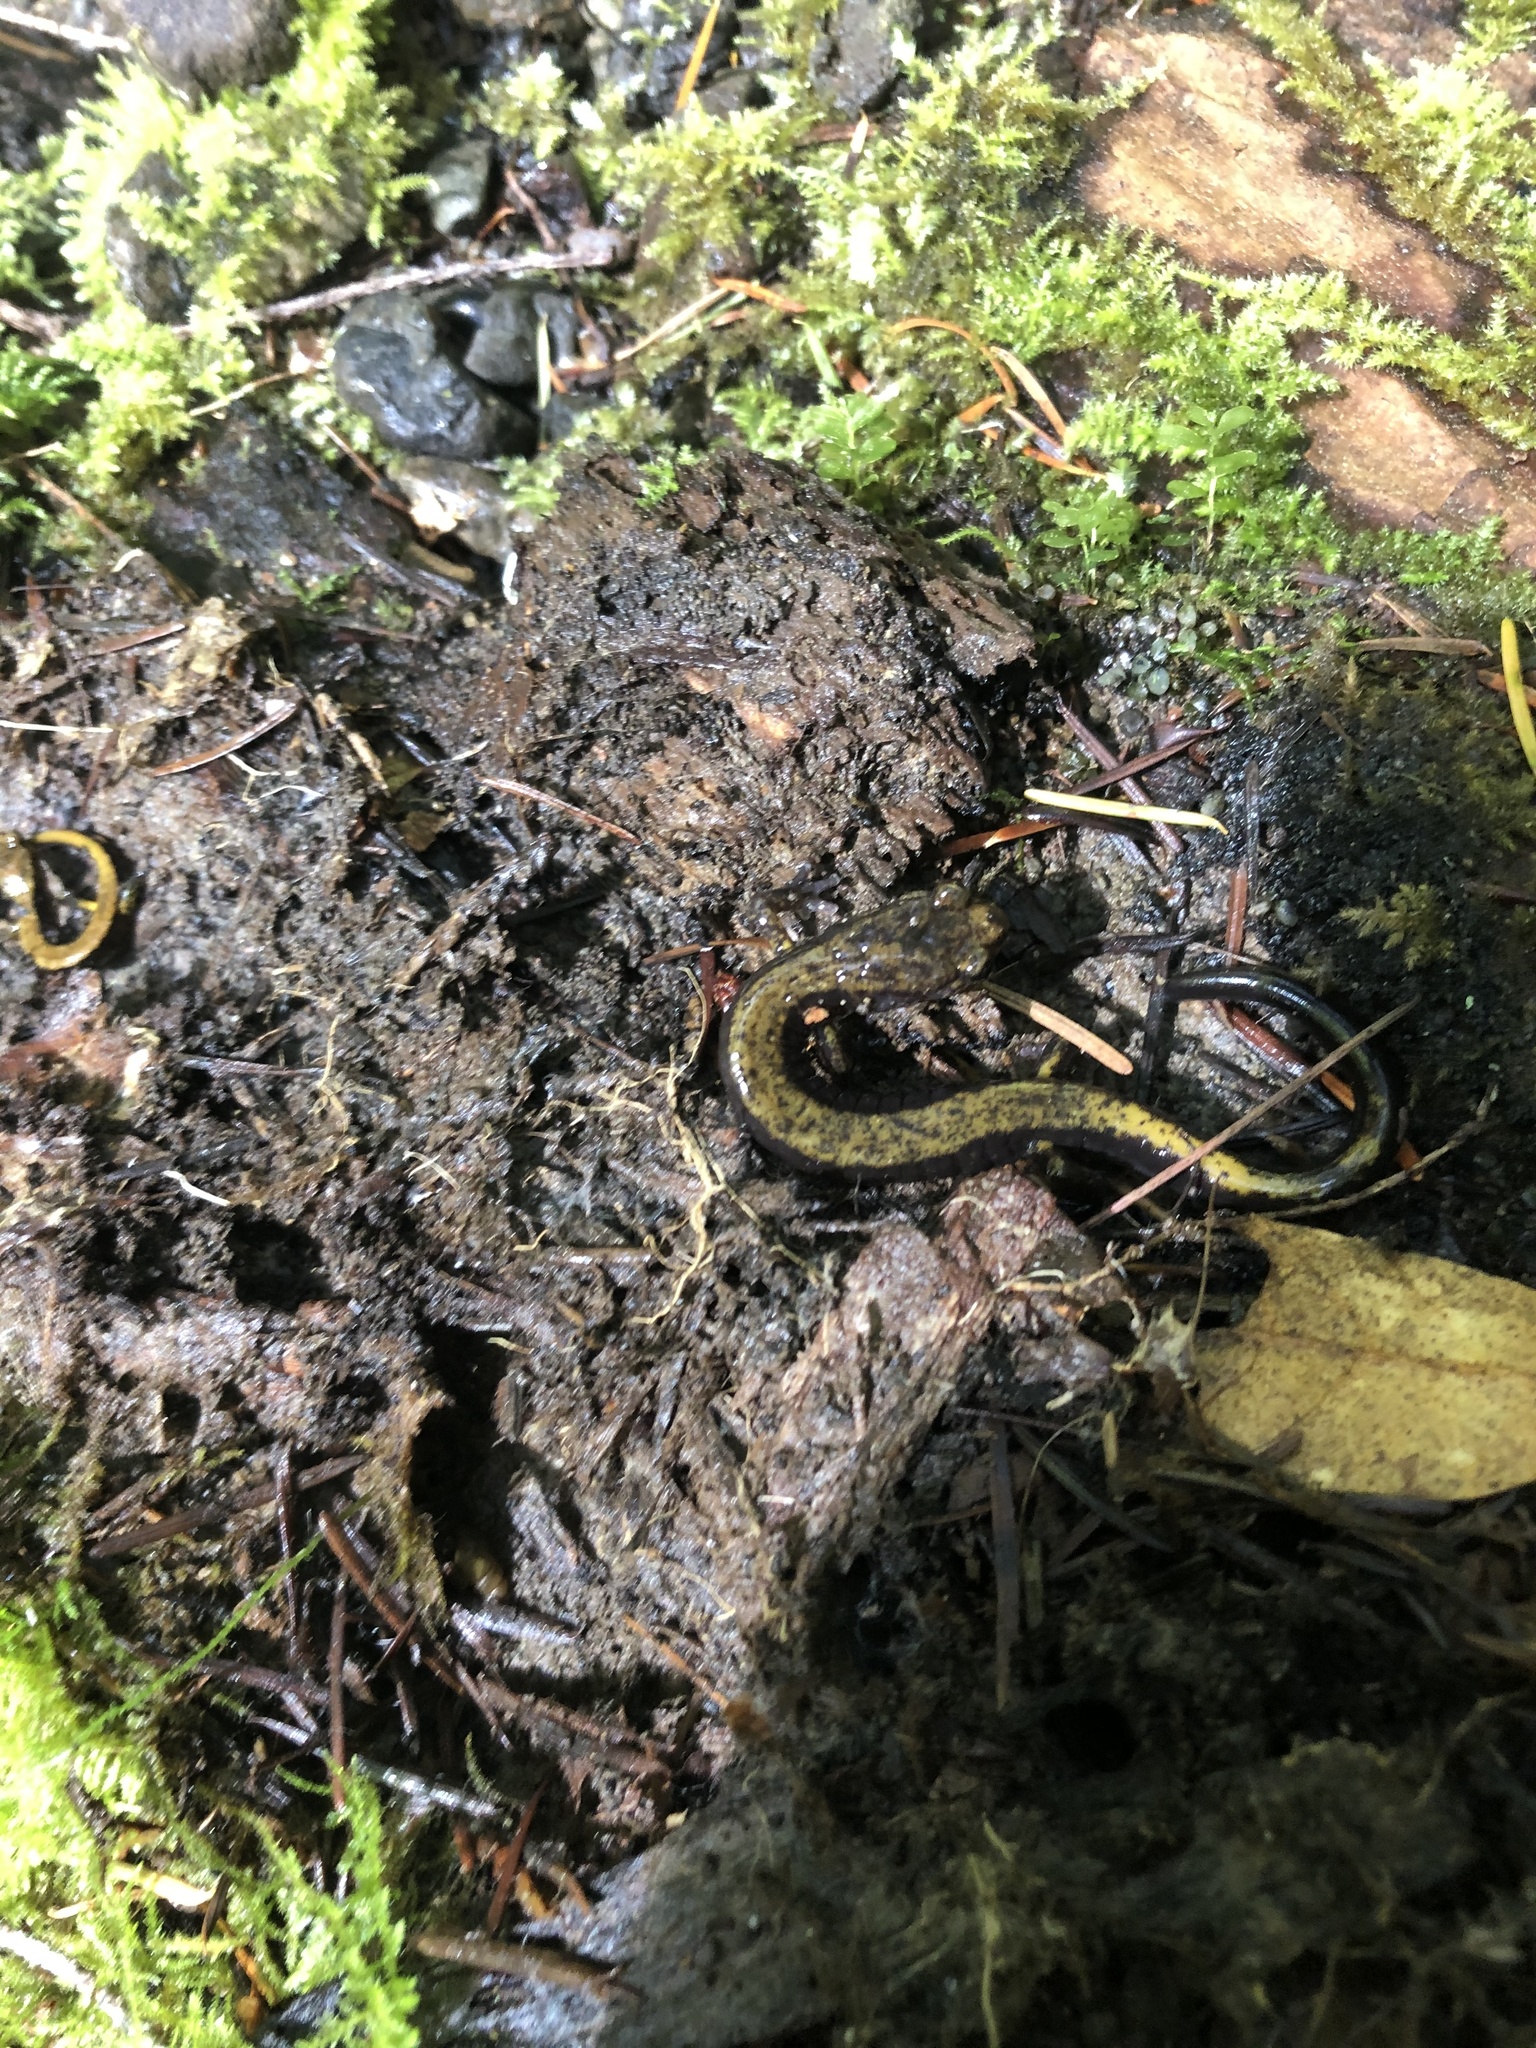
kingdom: Animalia
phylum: Chordata
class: Amphibia
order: Caudata
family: Plethodontidae
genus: Plethodon
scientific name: Plethodon dunni
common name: Dunn's salamander
